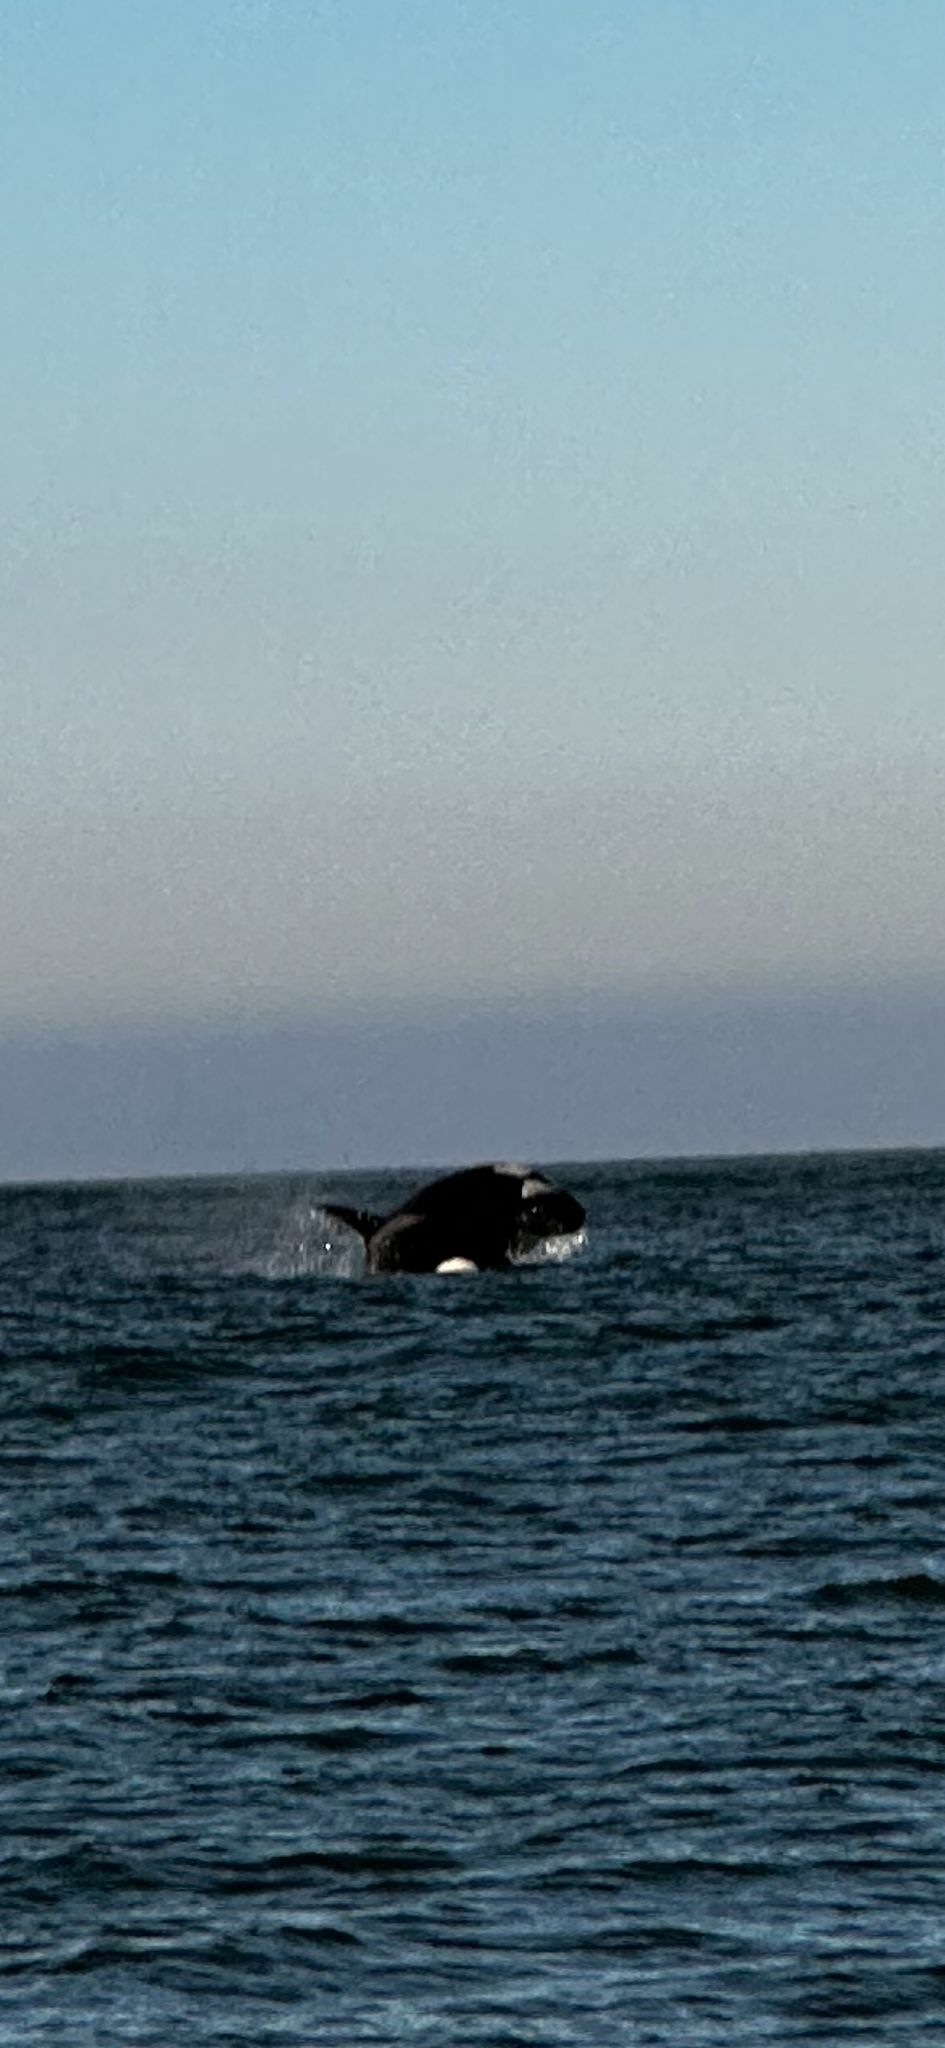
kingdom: Animalia
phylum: Chordata
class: Mammalia
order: Cetacea
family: Delphinidae
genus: Orcinus
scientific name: Orcinus orca
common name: Killer whale
